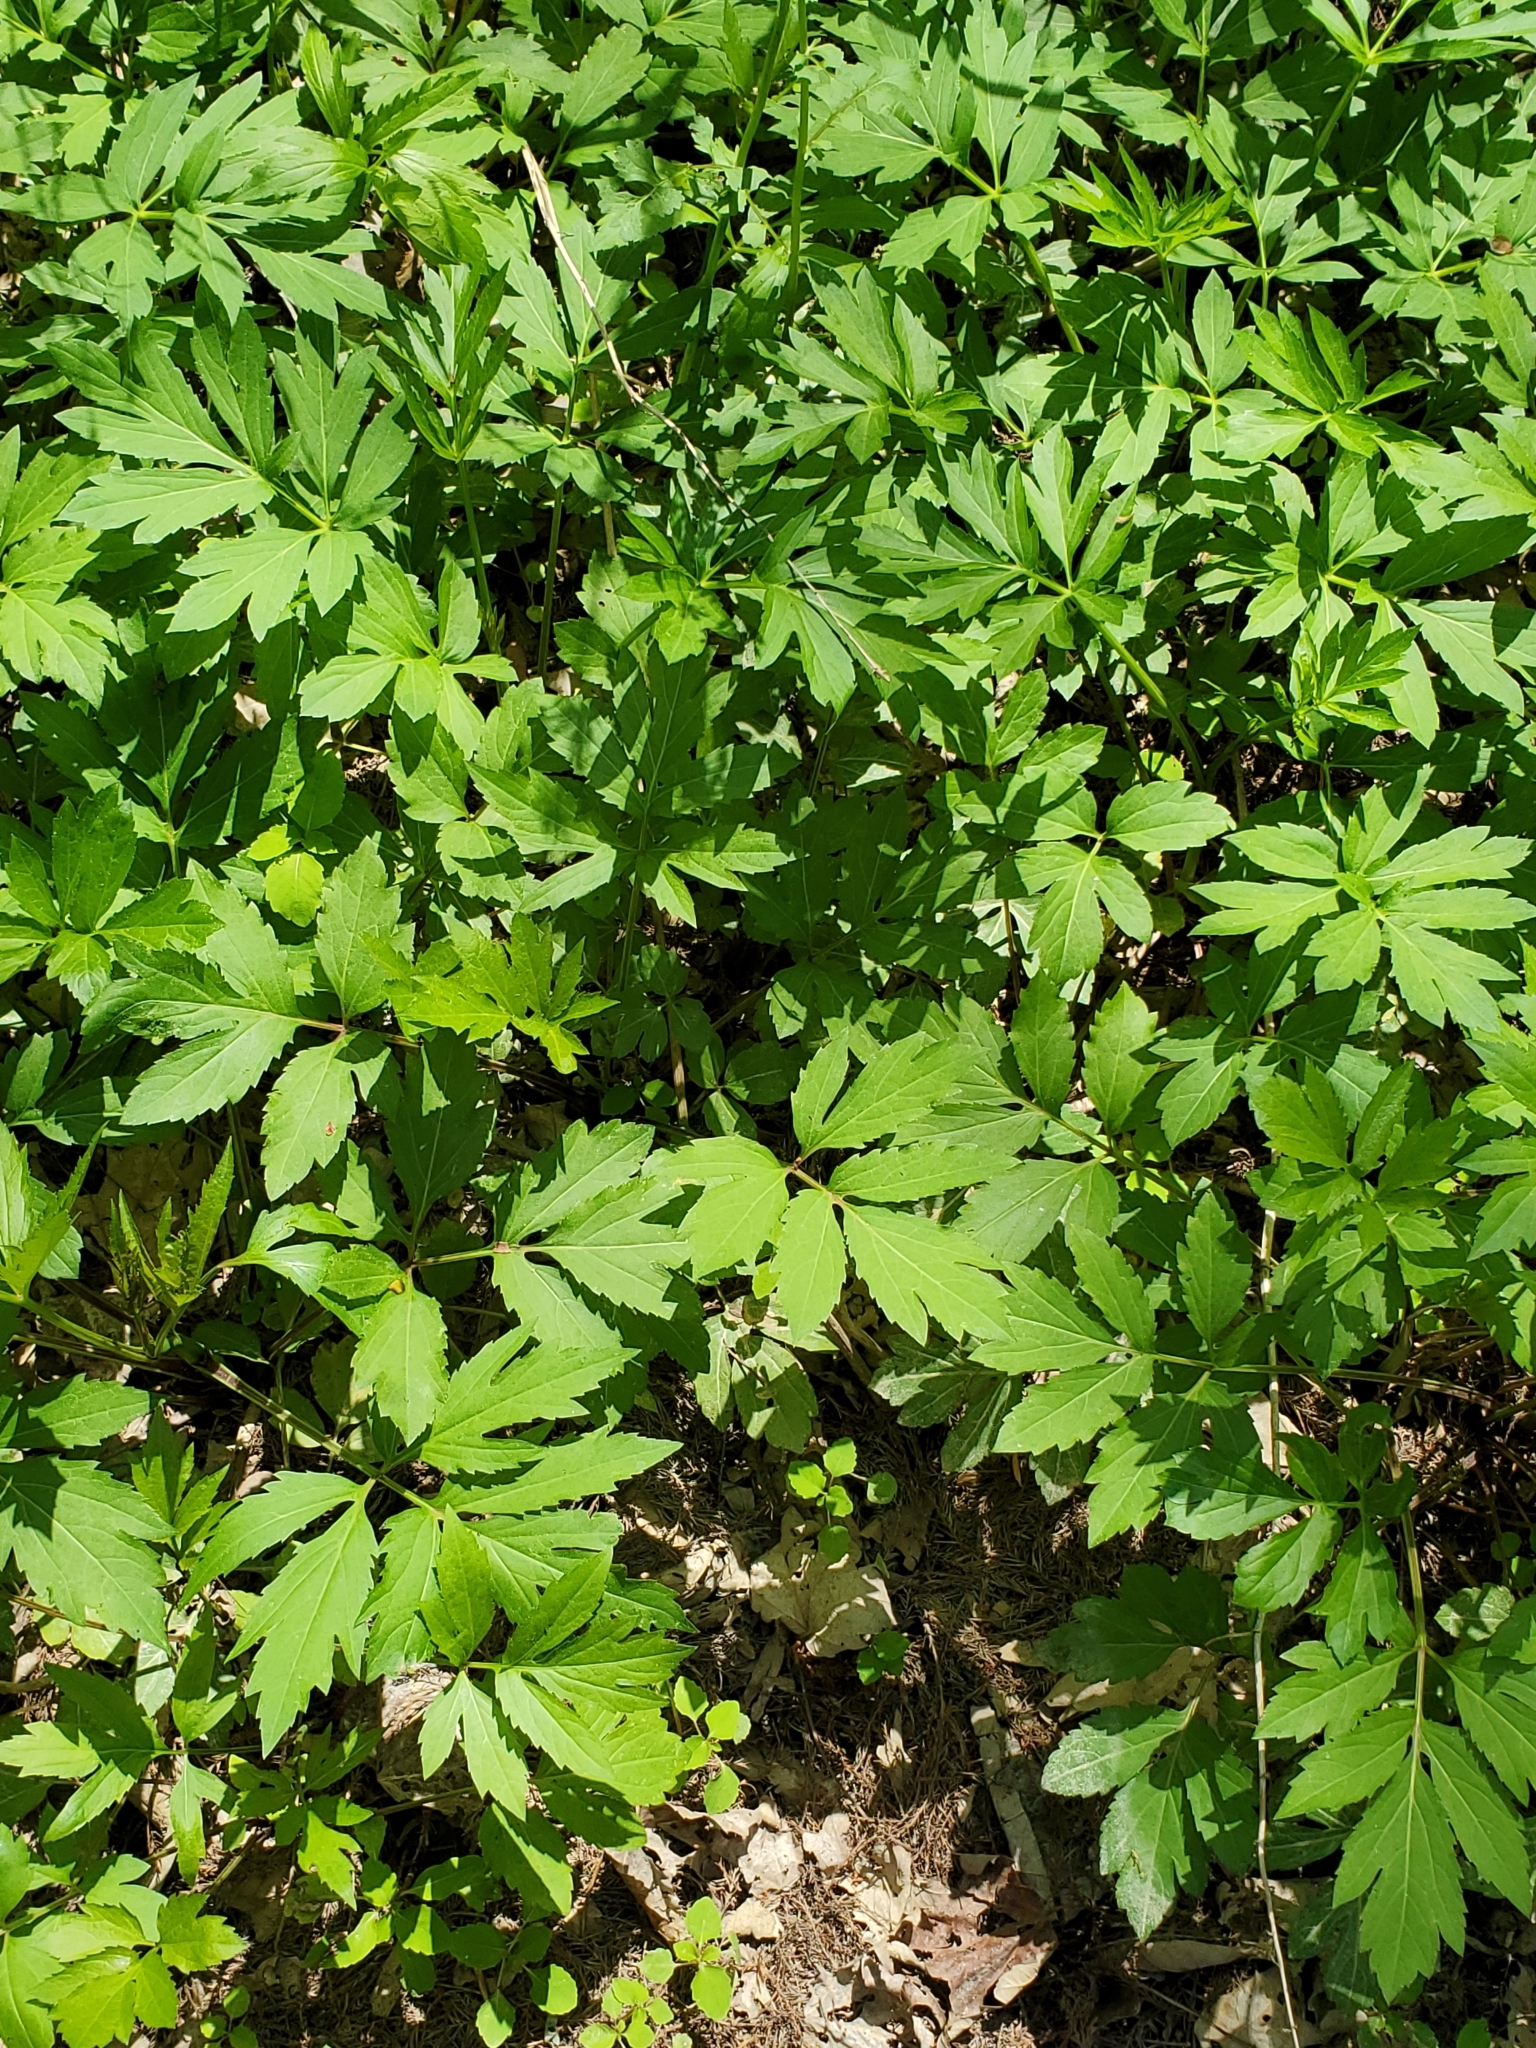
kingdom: Plantae
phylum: Tracheophyta
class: Magnoliopsida
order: Asterales
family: Asteraceae
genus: Rudbeckia
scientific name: Rudbeckia laciniata
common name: Coneflower
